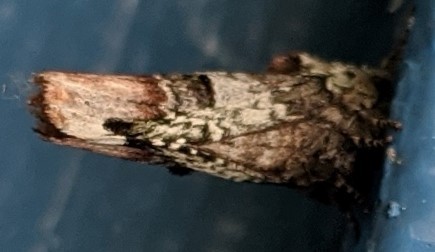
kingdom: Animalia
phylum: Arthropoda
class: Insecta
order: Lepidoptera
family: Notodontidae
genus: Schizura
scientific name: Schizura
